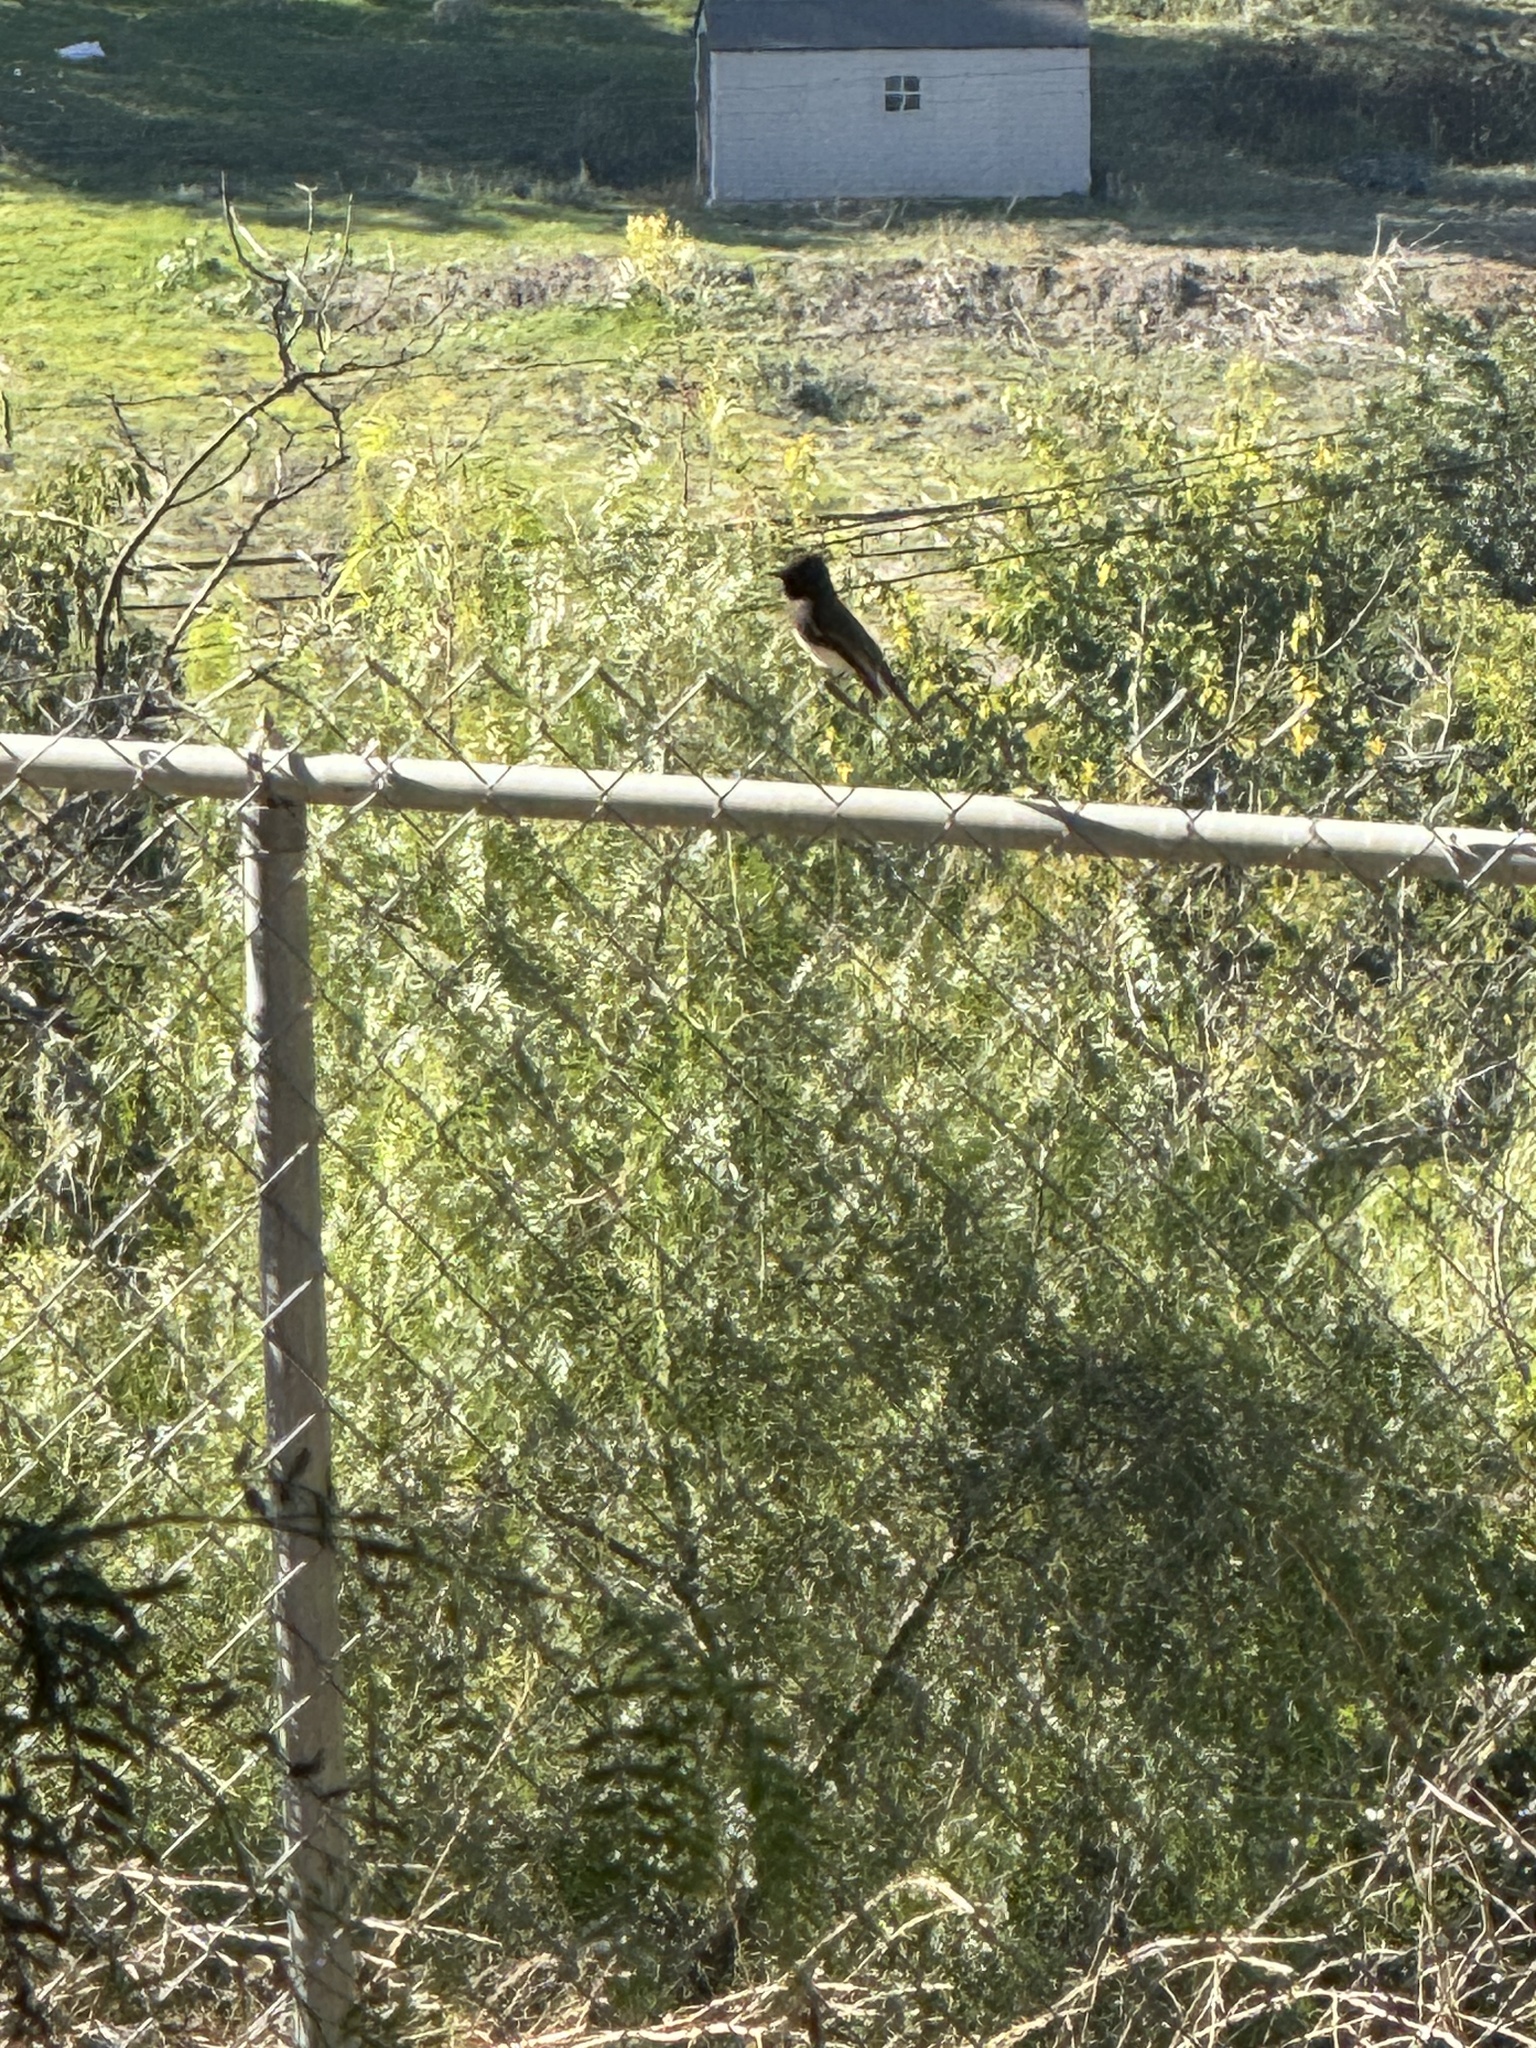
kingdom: Animalia
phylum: Chordata
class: Aves
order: Passeriformes
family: Tyrannidae
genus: Sayornis
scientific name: Sayornis nigricans
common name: Black phoebe
